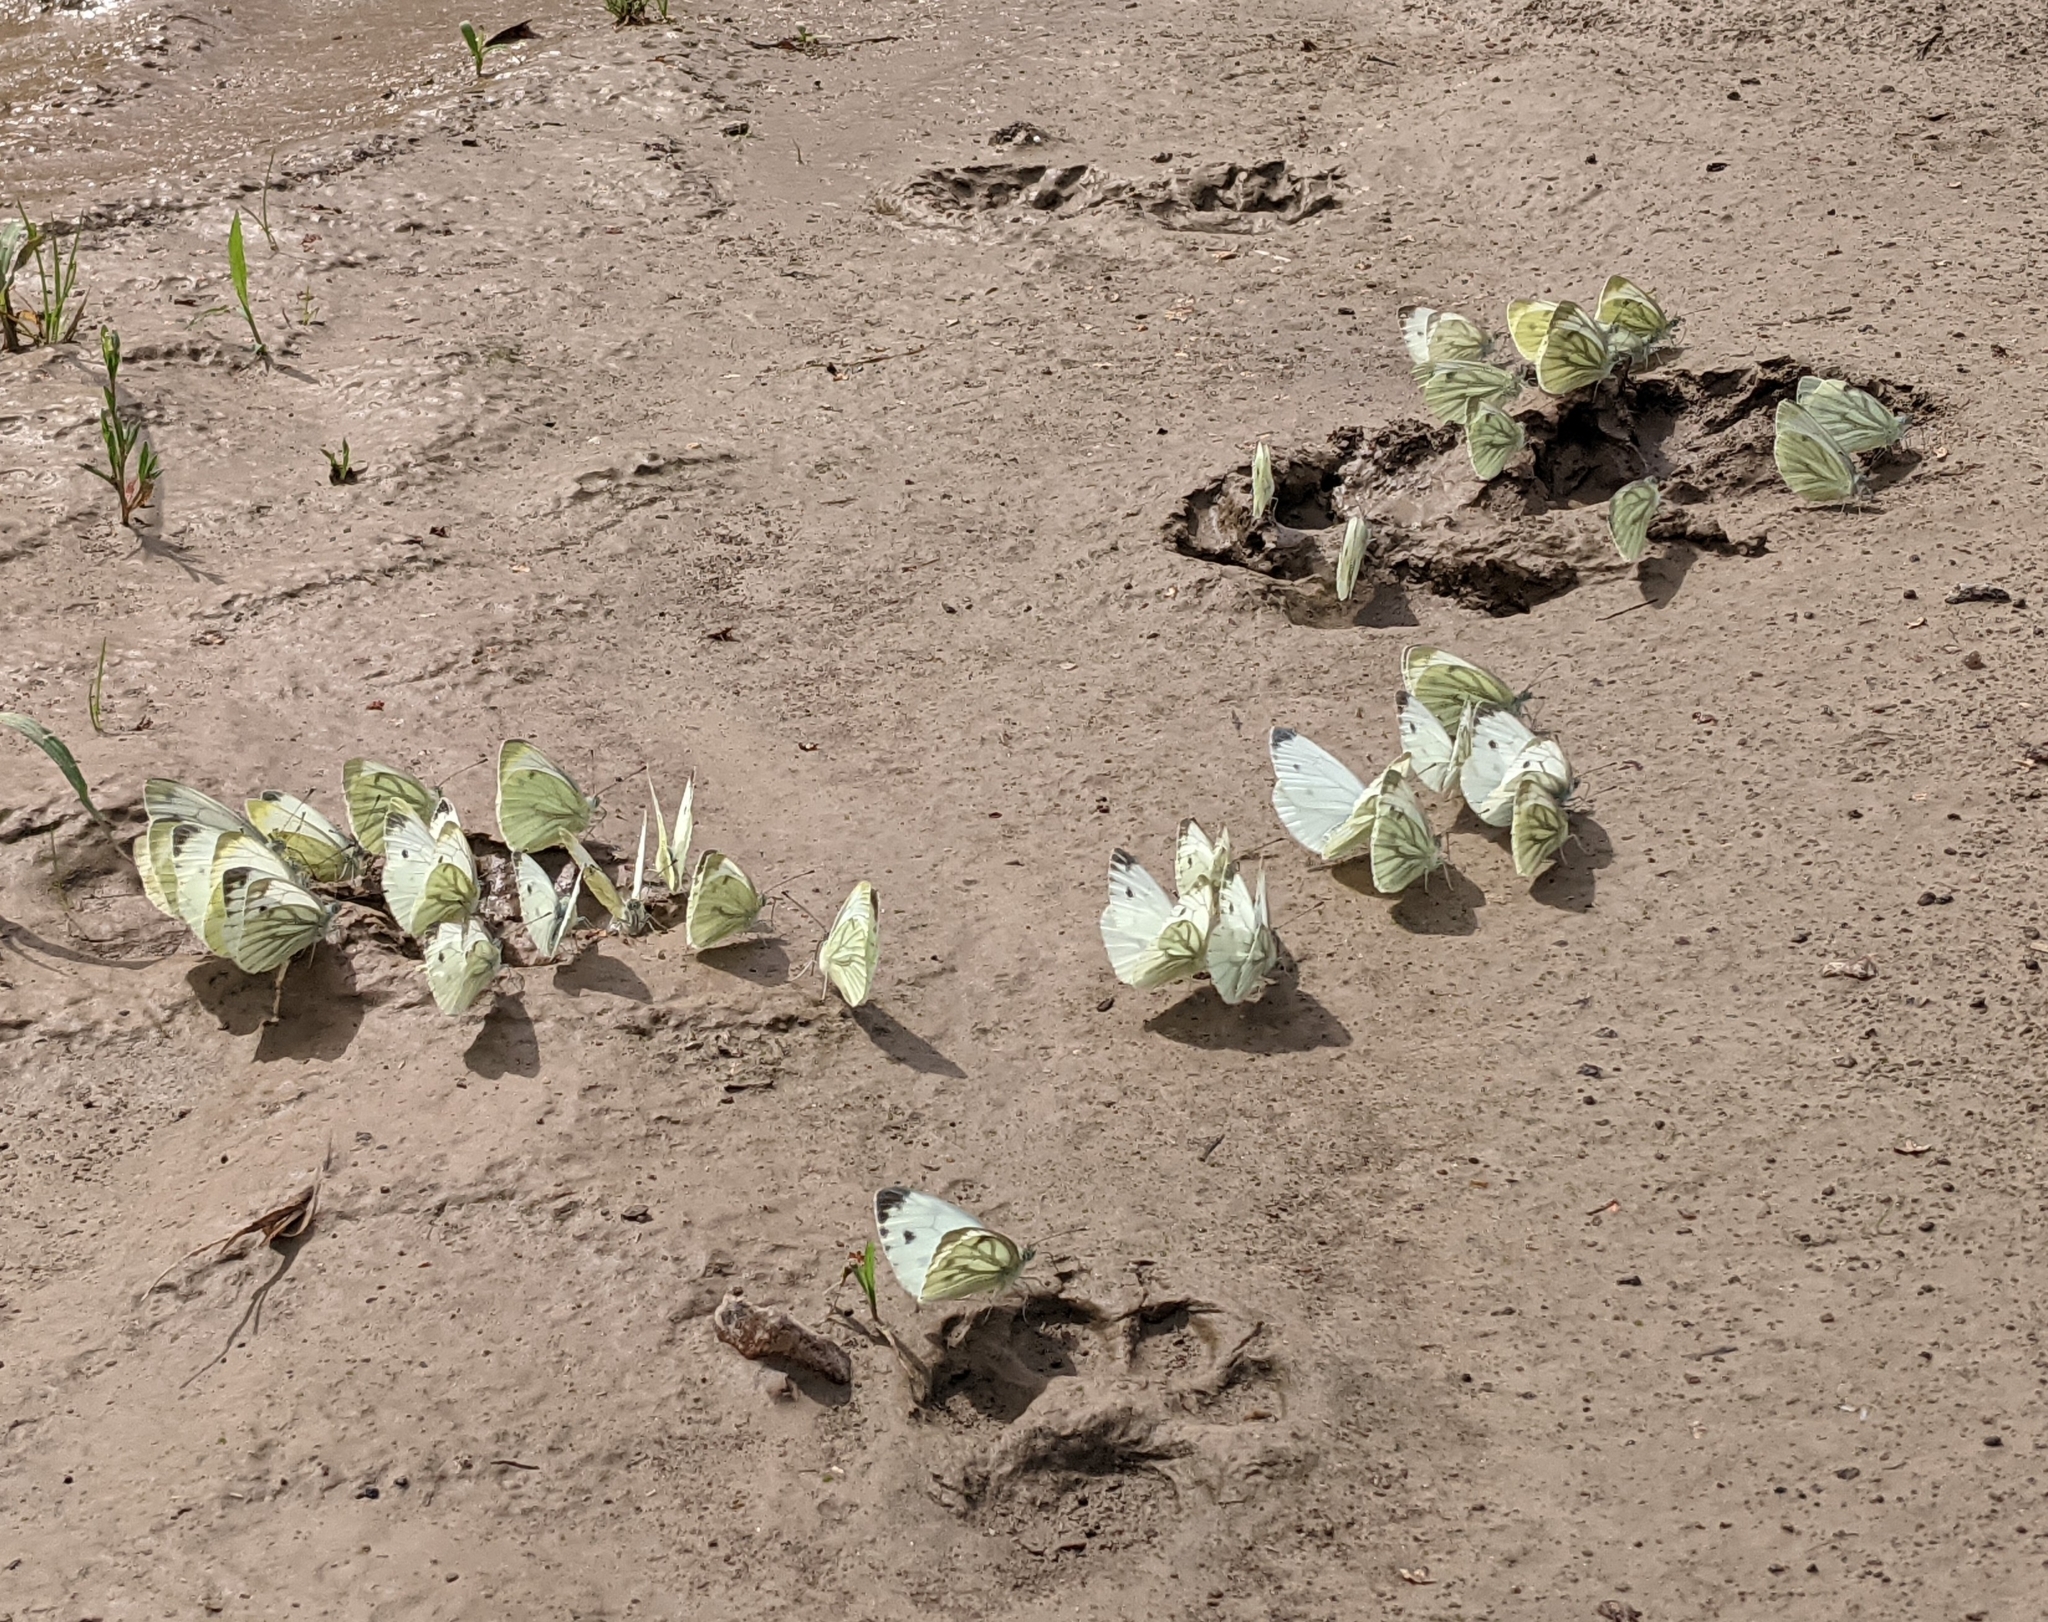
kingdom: Animalia
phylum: Arthropoda
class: Insecta
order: Lepidoptera
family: Pieridae
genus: Pieris
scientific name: Pieris napi
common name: Green-veined white
